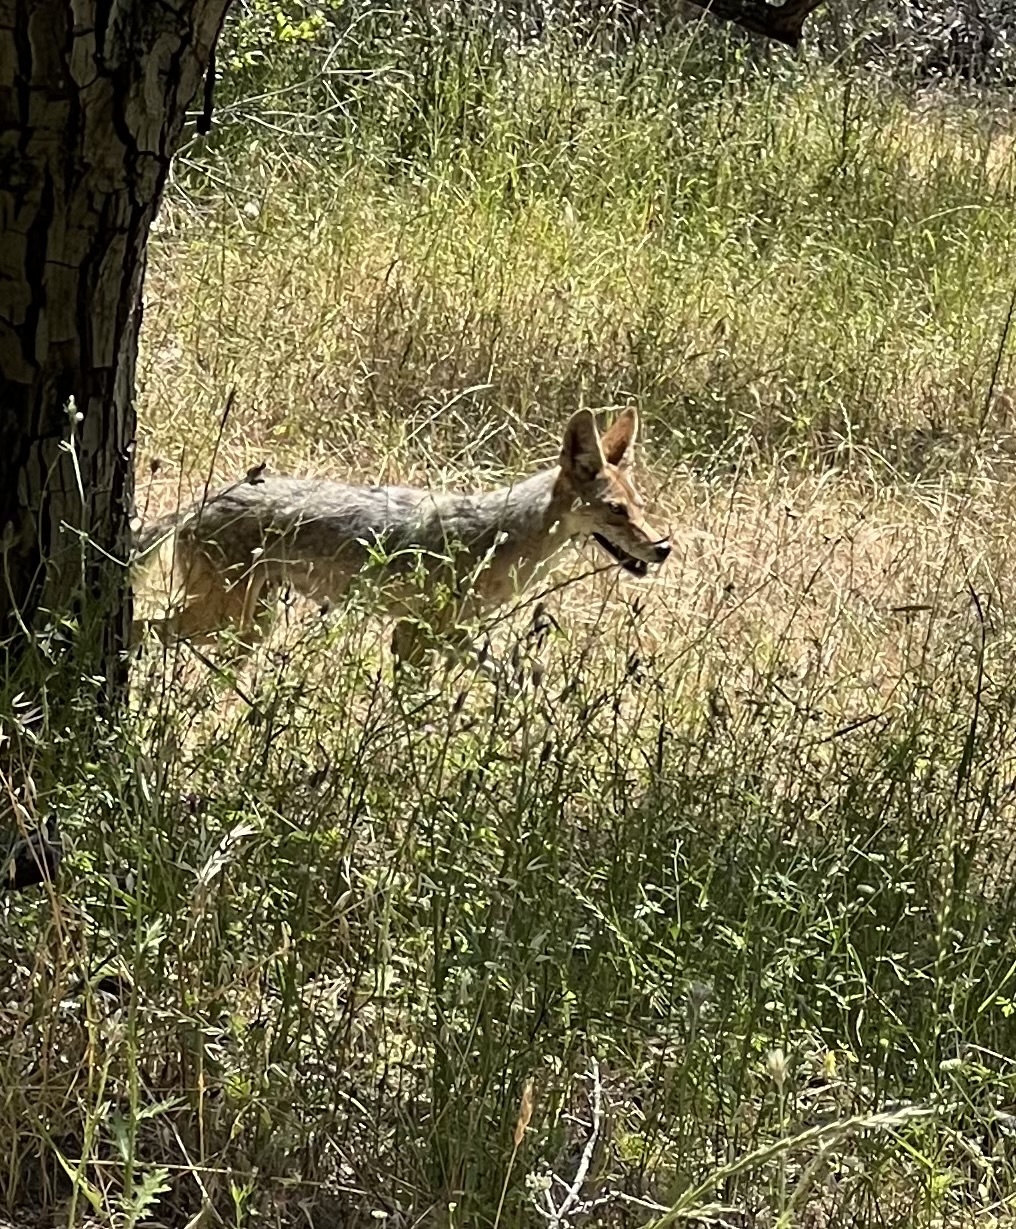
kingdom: Animalia
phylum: Chordata
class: Mammalia
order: Carnivora
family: Canidae
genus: Canis
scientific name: Canis latrans
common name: Coyote
